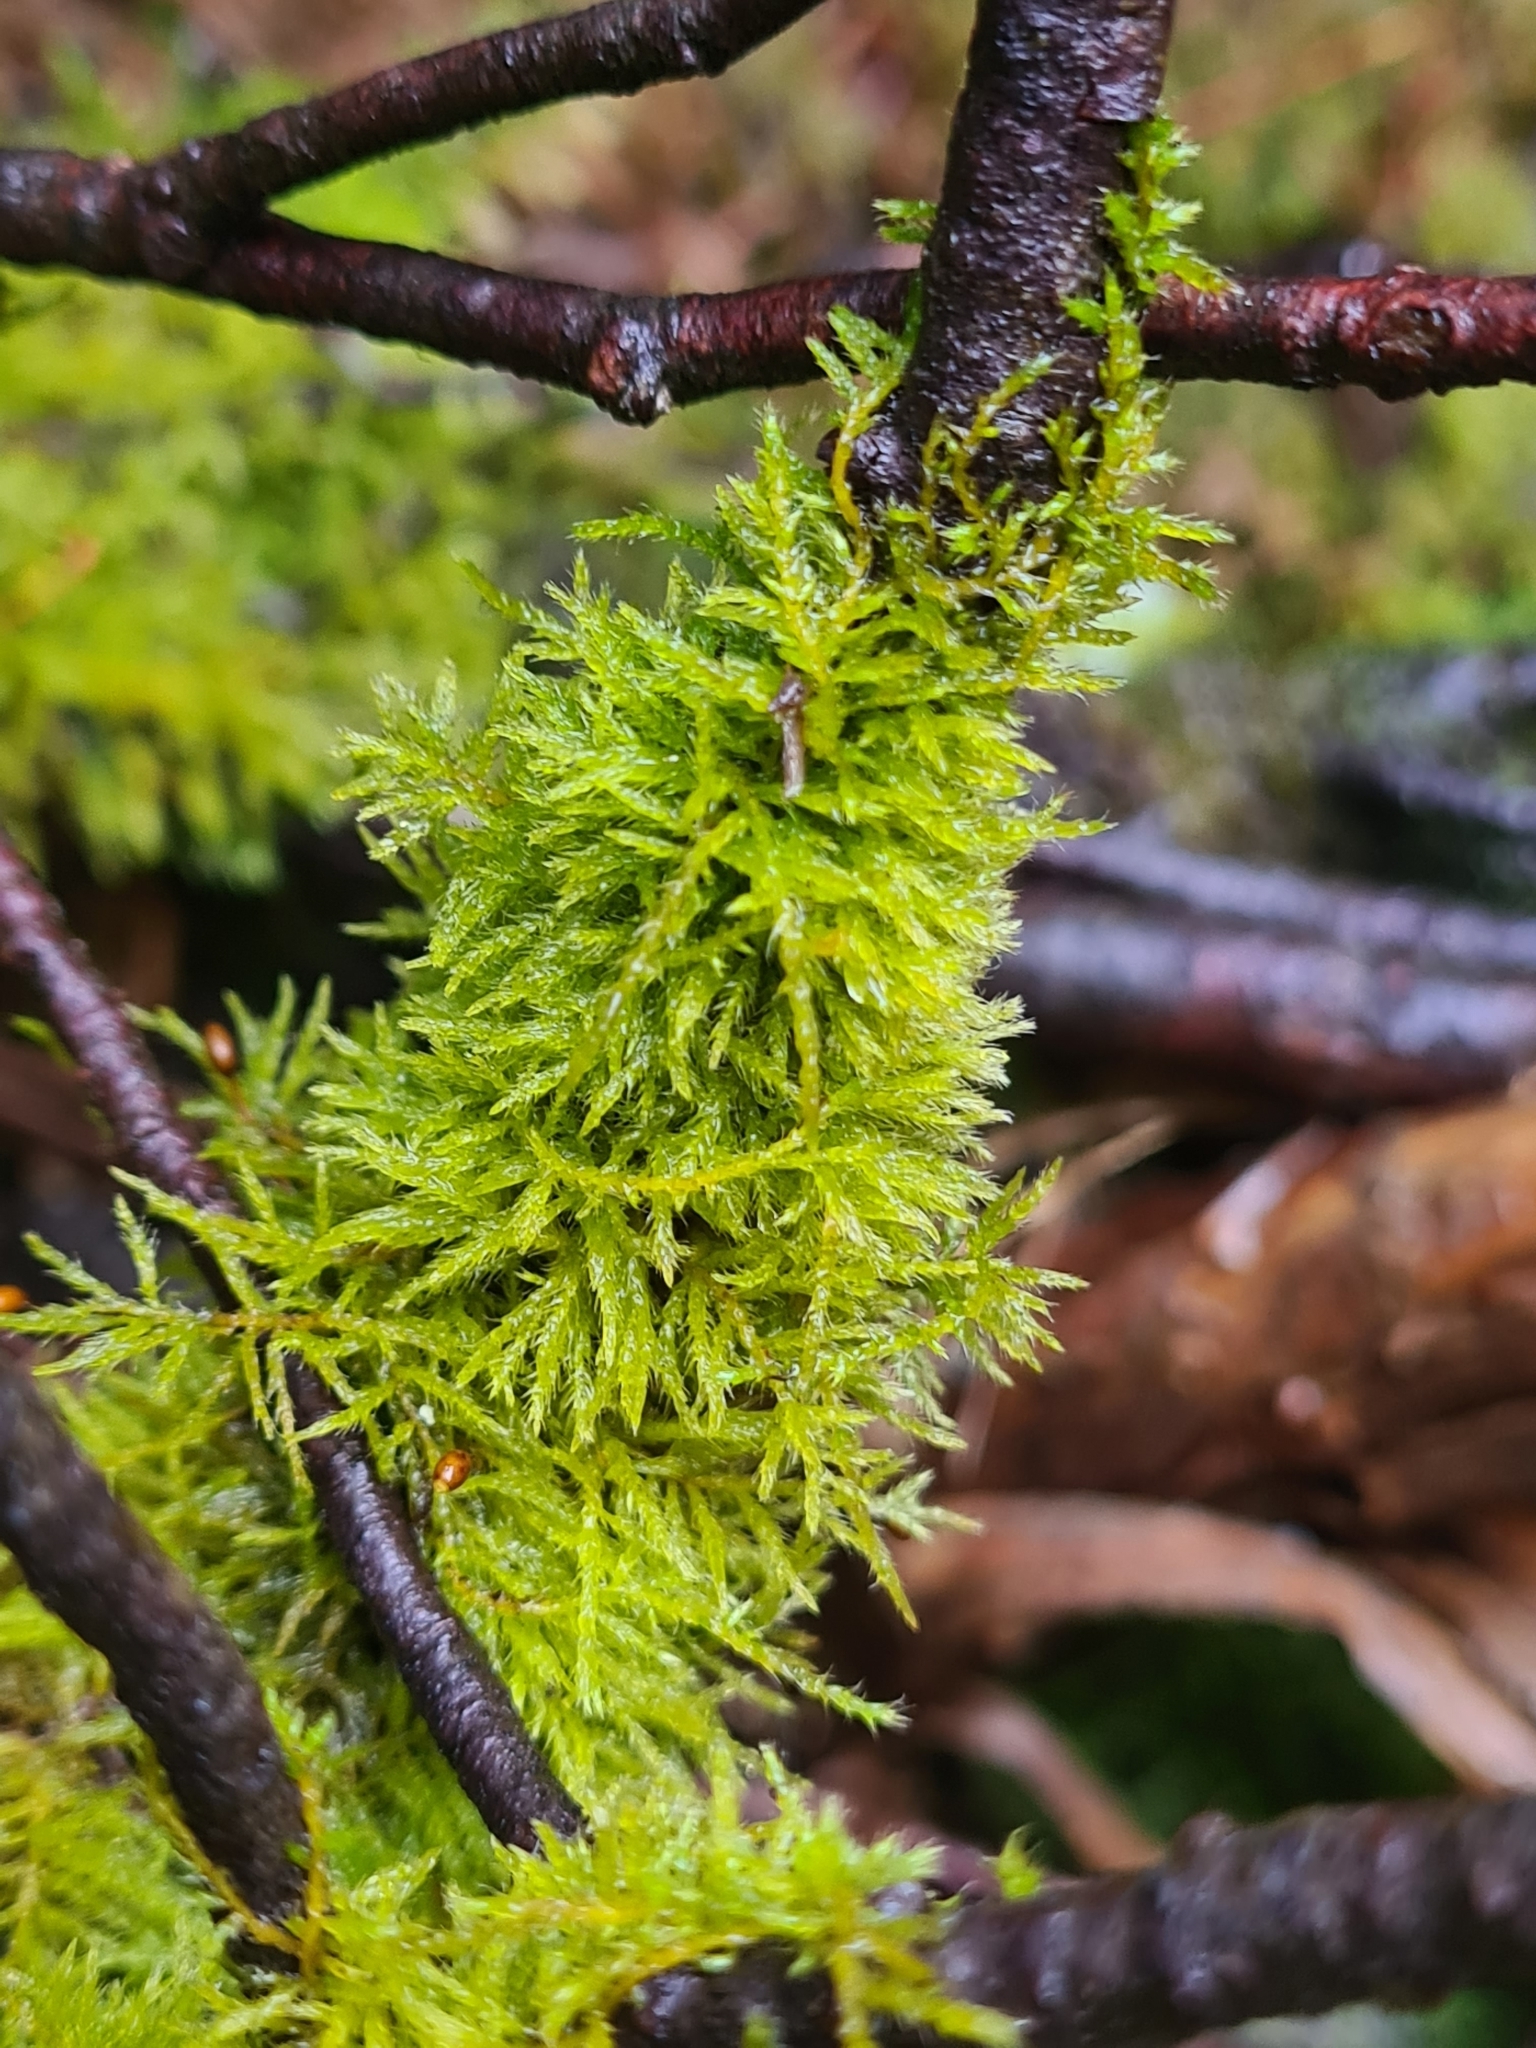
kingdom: Plantae
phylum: Bryophyta
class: Bryopsida
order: Hypnales
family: Brachytheciaceae
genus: Sciuro-hypnum
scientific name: Sciuro-hypnum populeum
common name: Matted feather-moss
